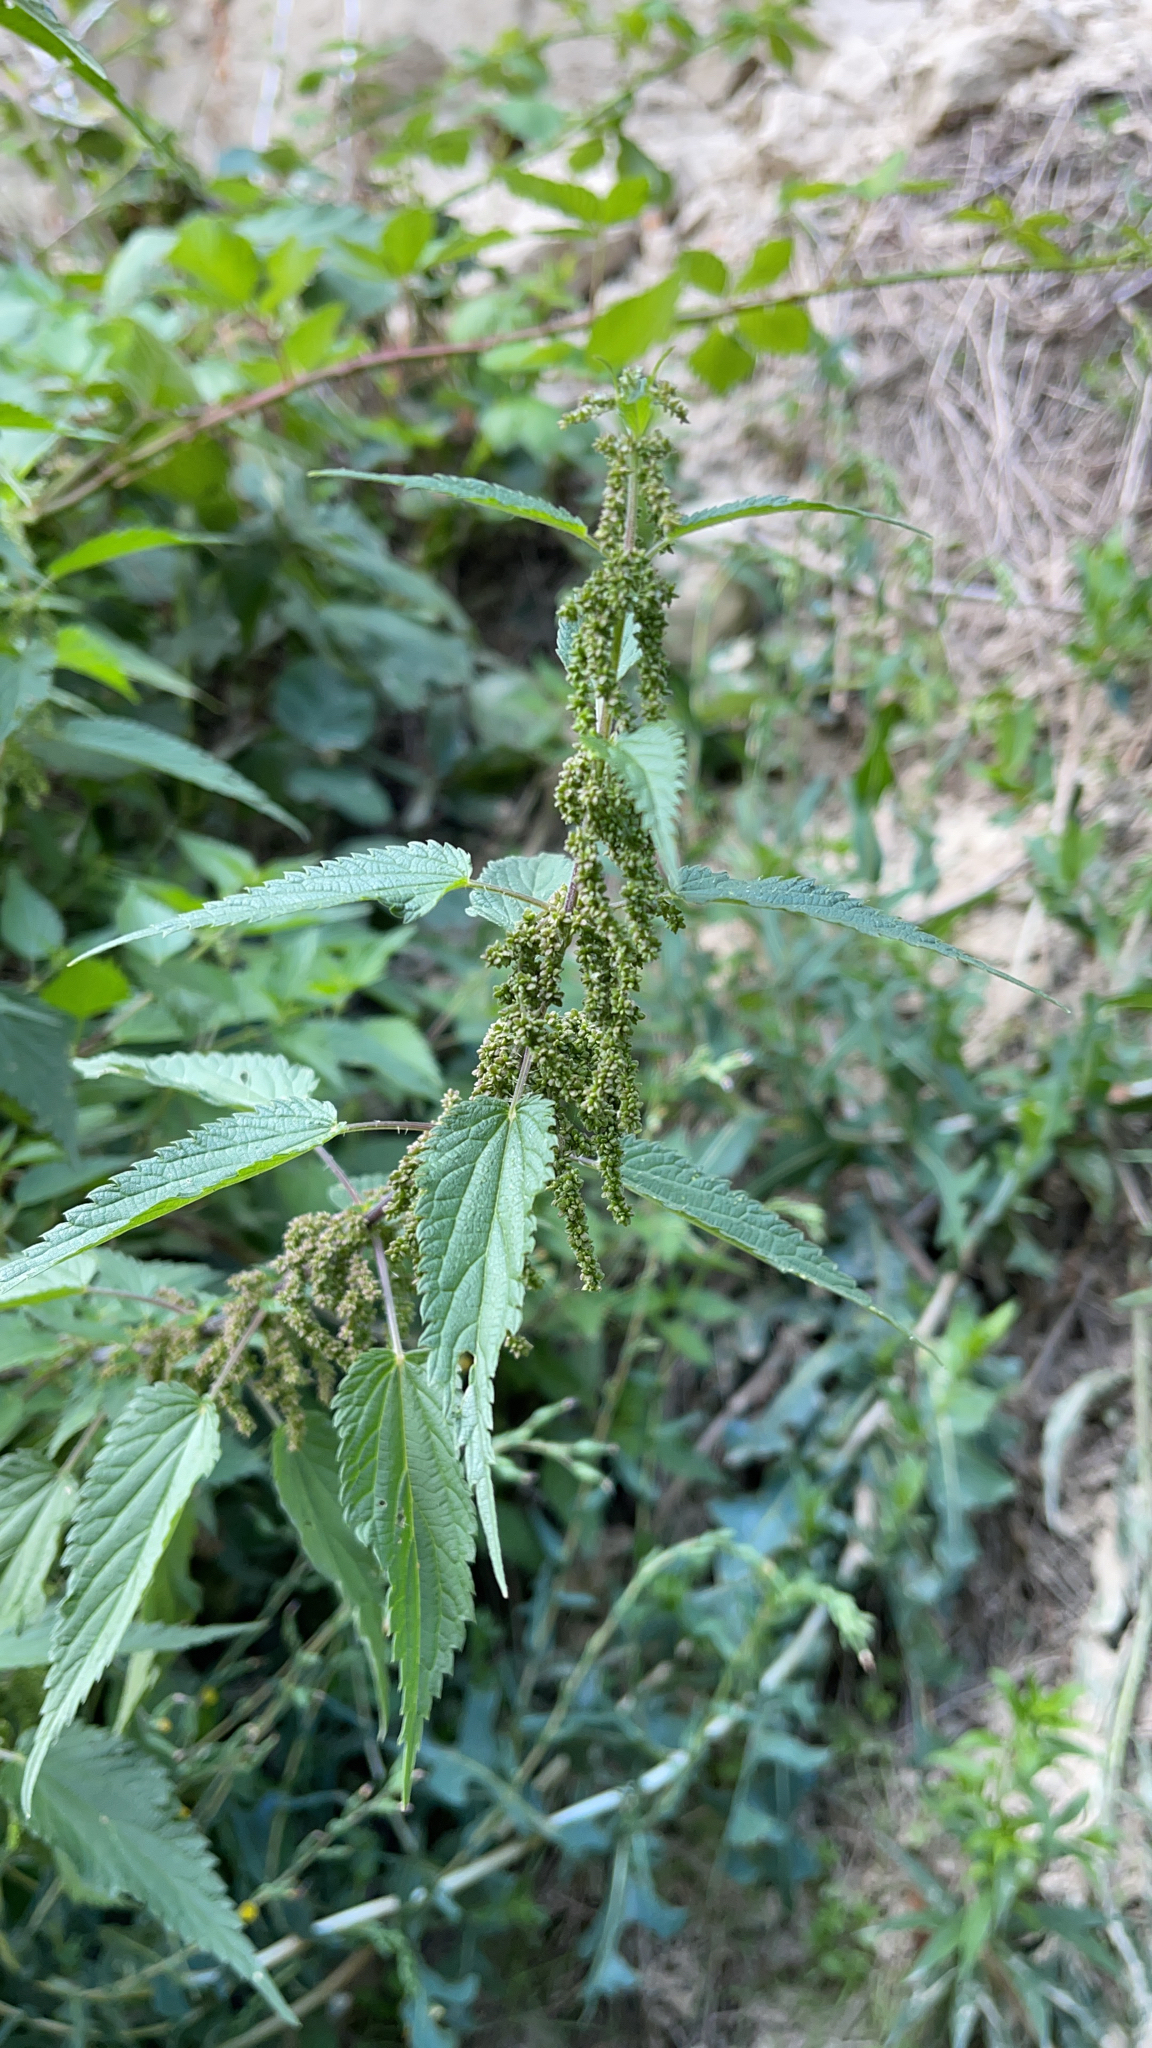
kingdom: Plantae
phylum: Tracheophyta
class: Magnoliopsida
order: Rosales
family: Urticaceae
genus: Urtica
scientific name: Urtica dioica
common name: Common nettle
